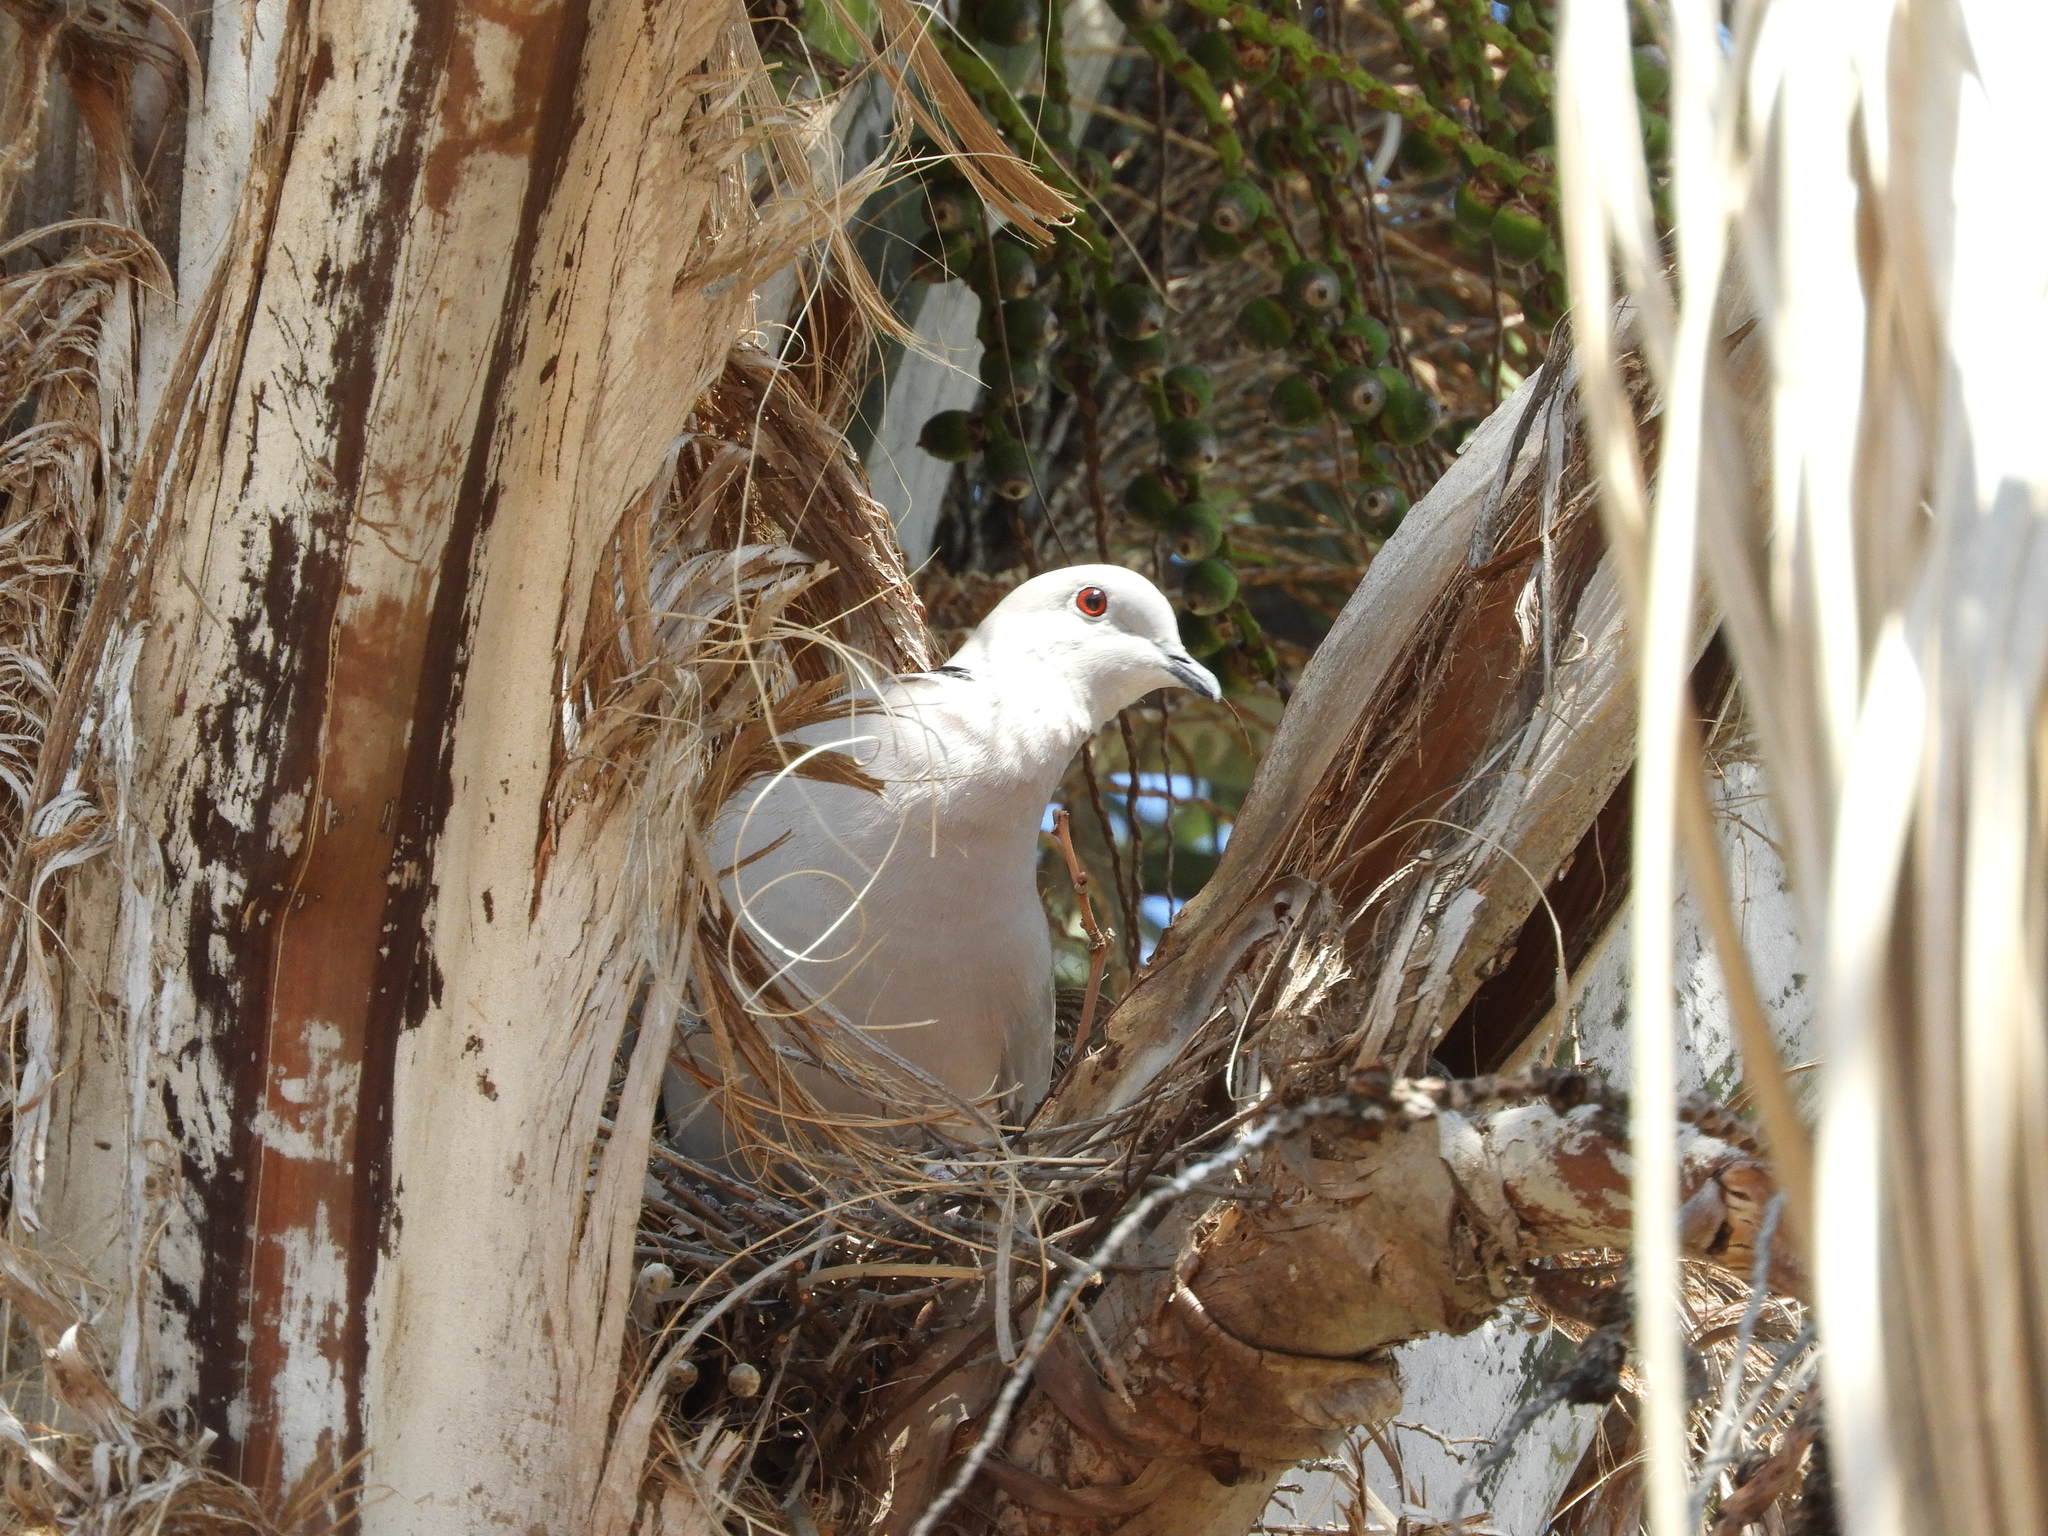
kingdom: Animalia
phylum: Chordata
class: Aves
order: Columbiformes
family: Columbidae
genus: Streptopelia
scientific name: Streptopelia decaocto
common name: Eurasian collared dove
